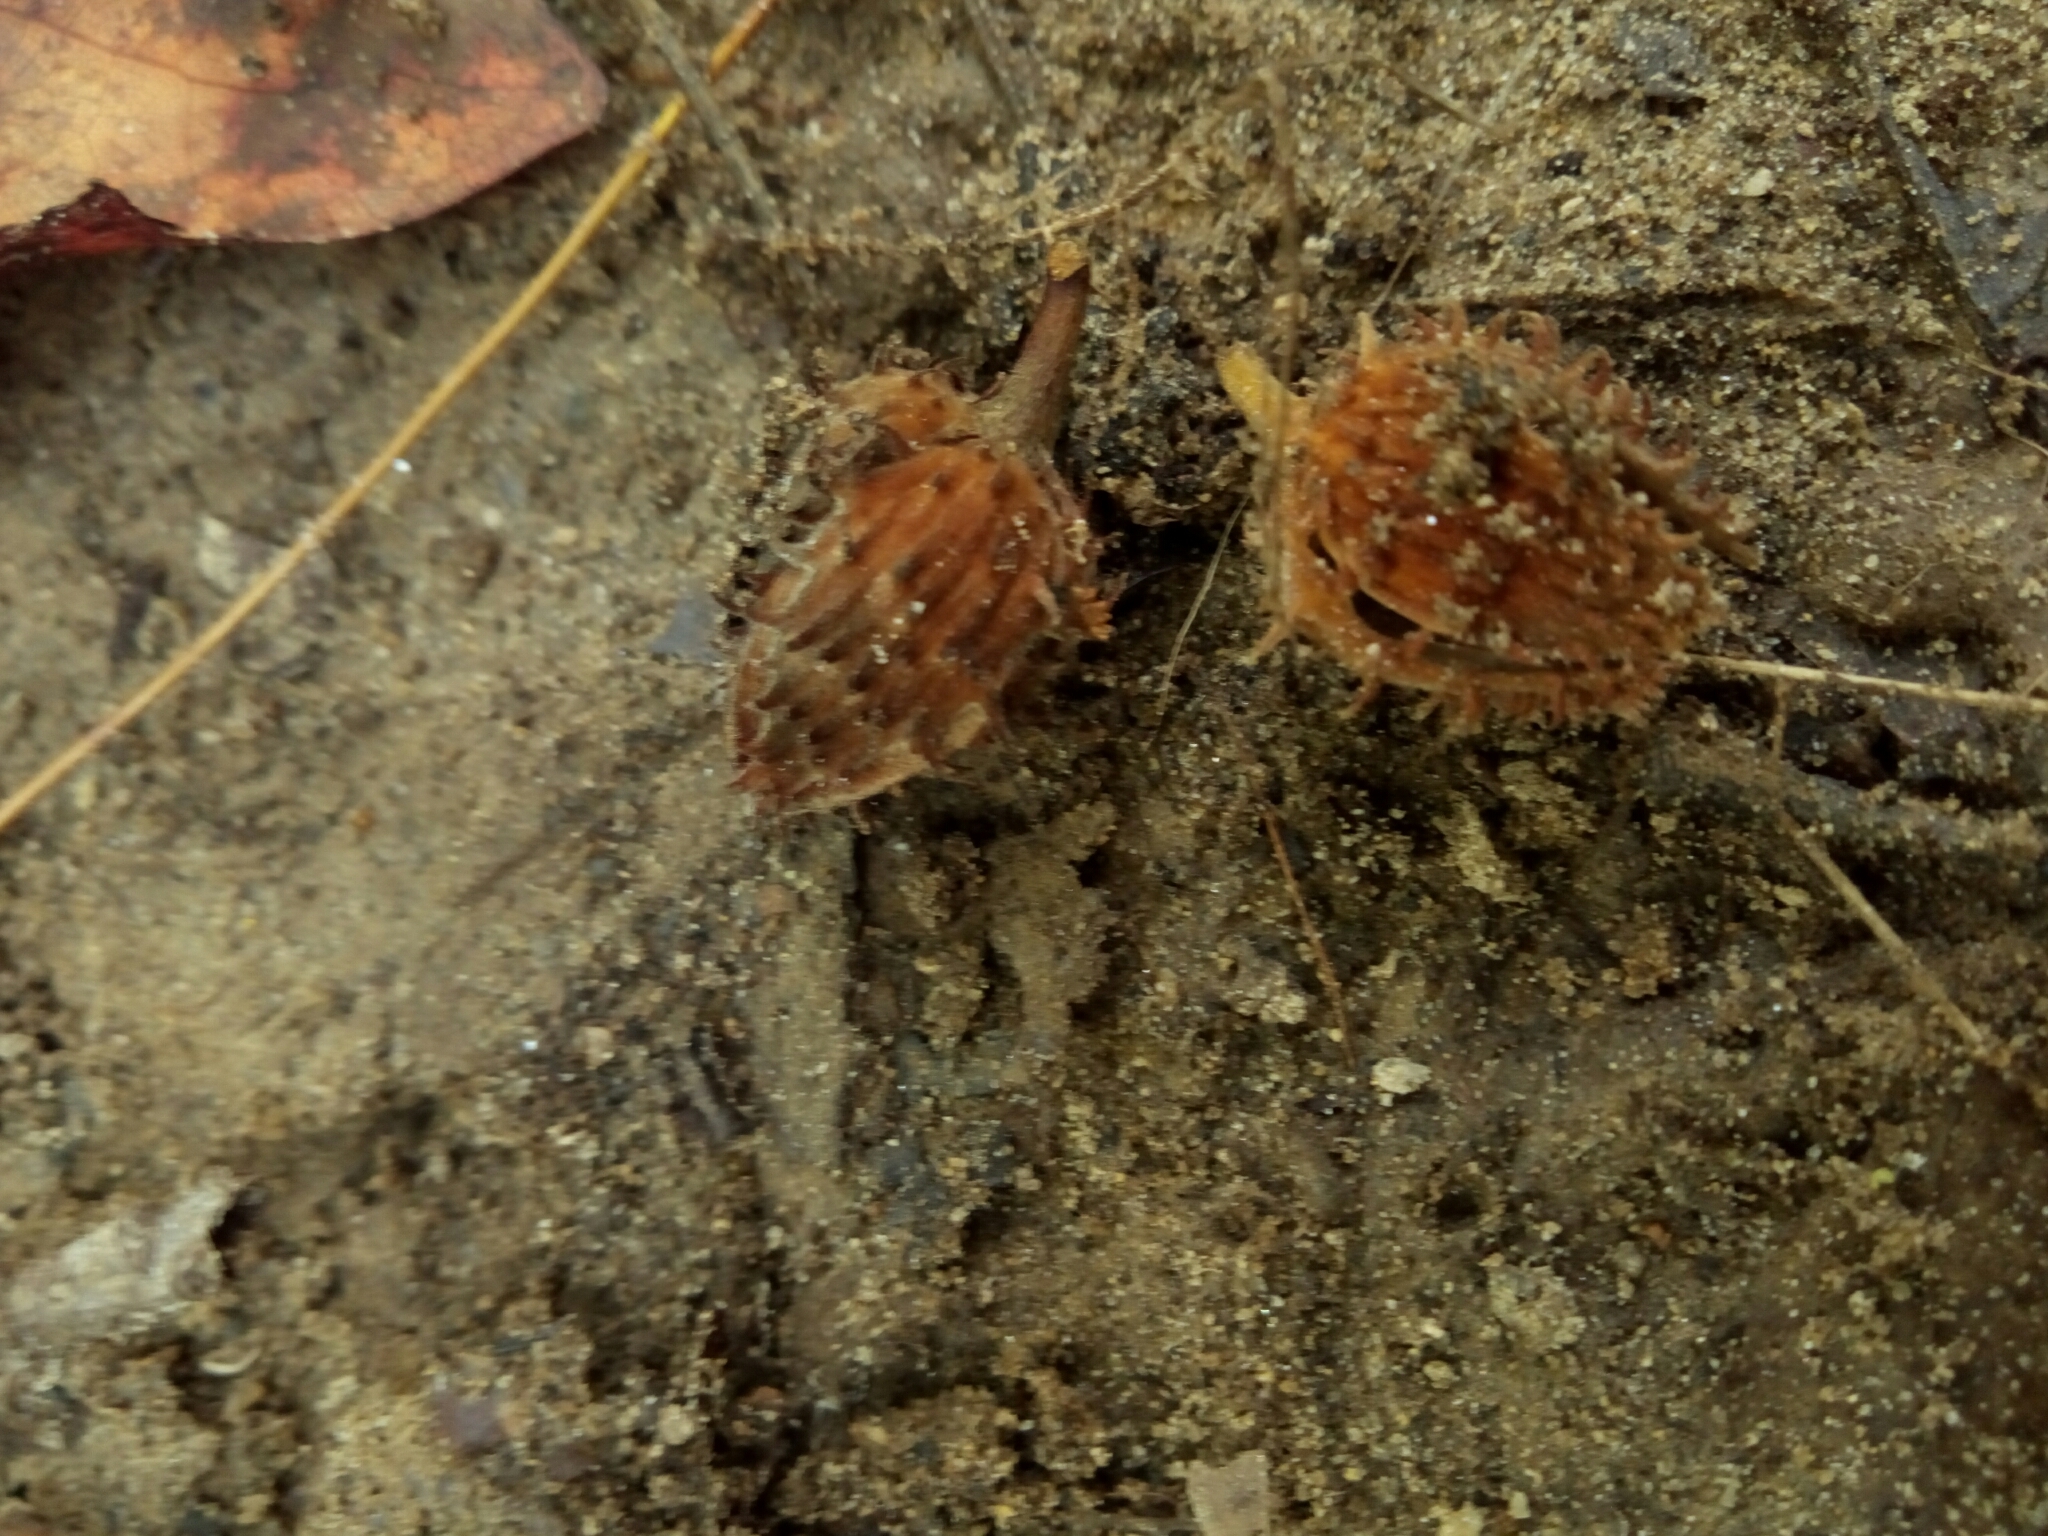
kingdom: Plantae
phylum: Tracheophyta
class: Magnoliopsida
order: Fagales
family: Fagaceae
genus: Fagus
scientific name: Fagus grandifolia
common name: American beech
